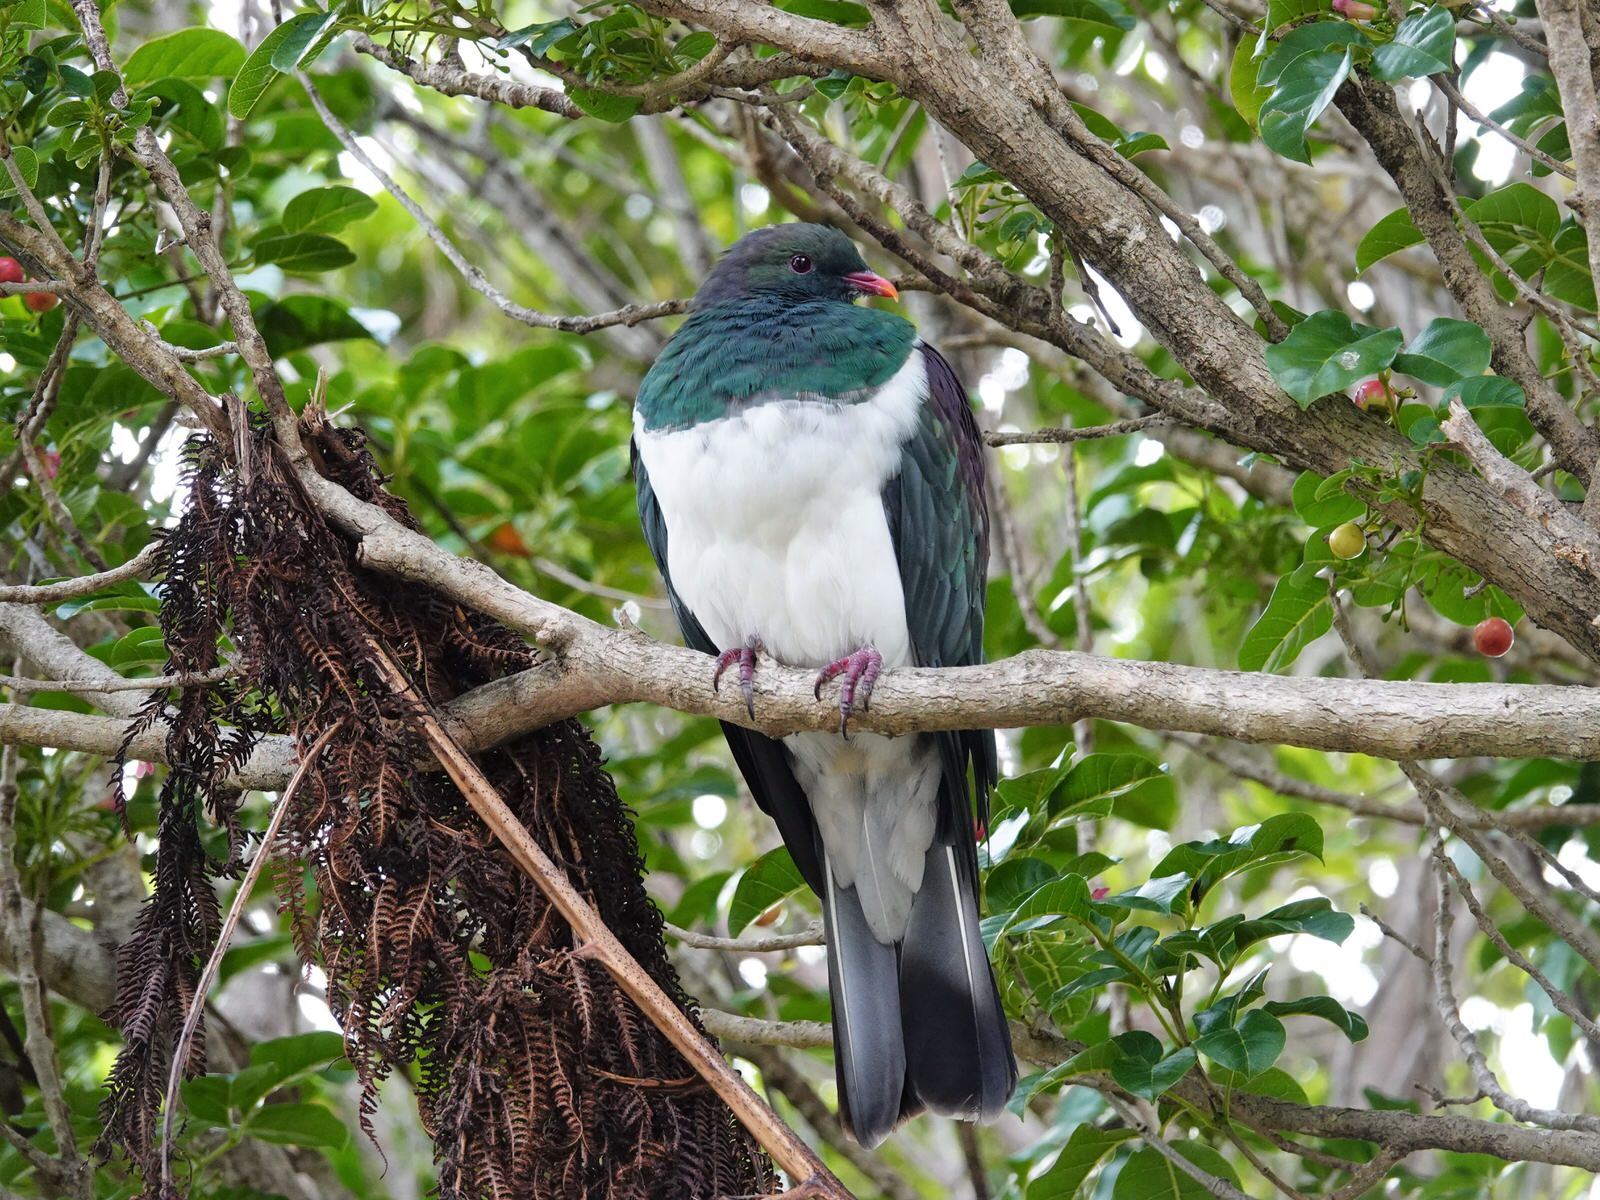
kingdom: Animalia
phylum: Chordata
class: Aves
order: Columbiformes
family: Columbidae
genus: Hemiphaga
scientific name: Hemiphaga novaeseelandiae
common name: New zealand pigeon
